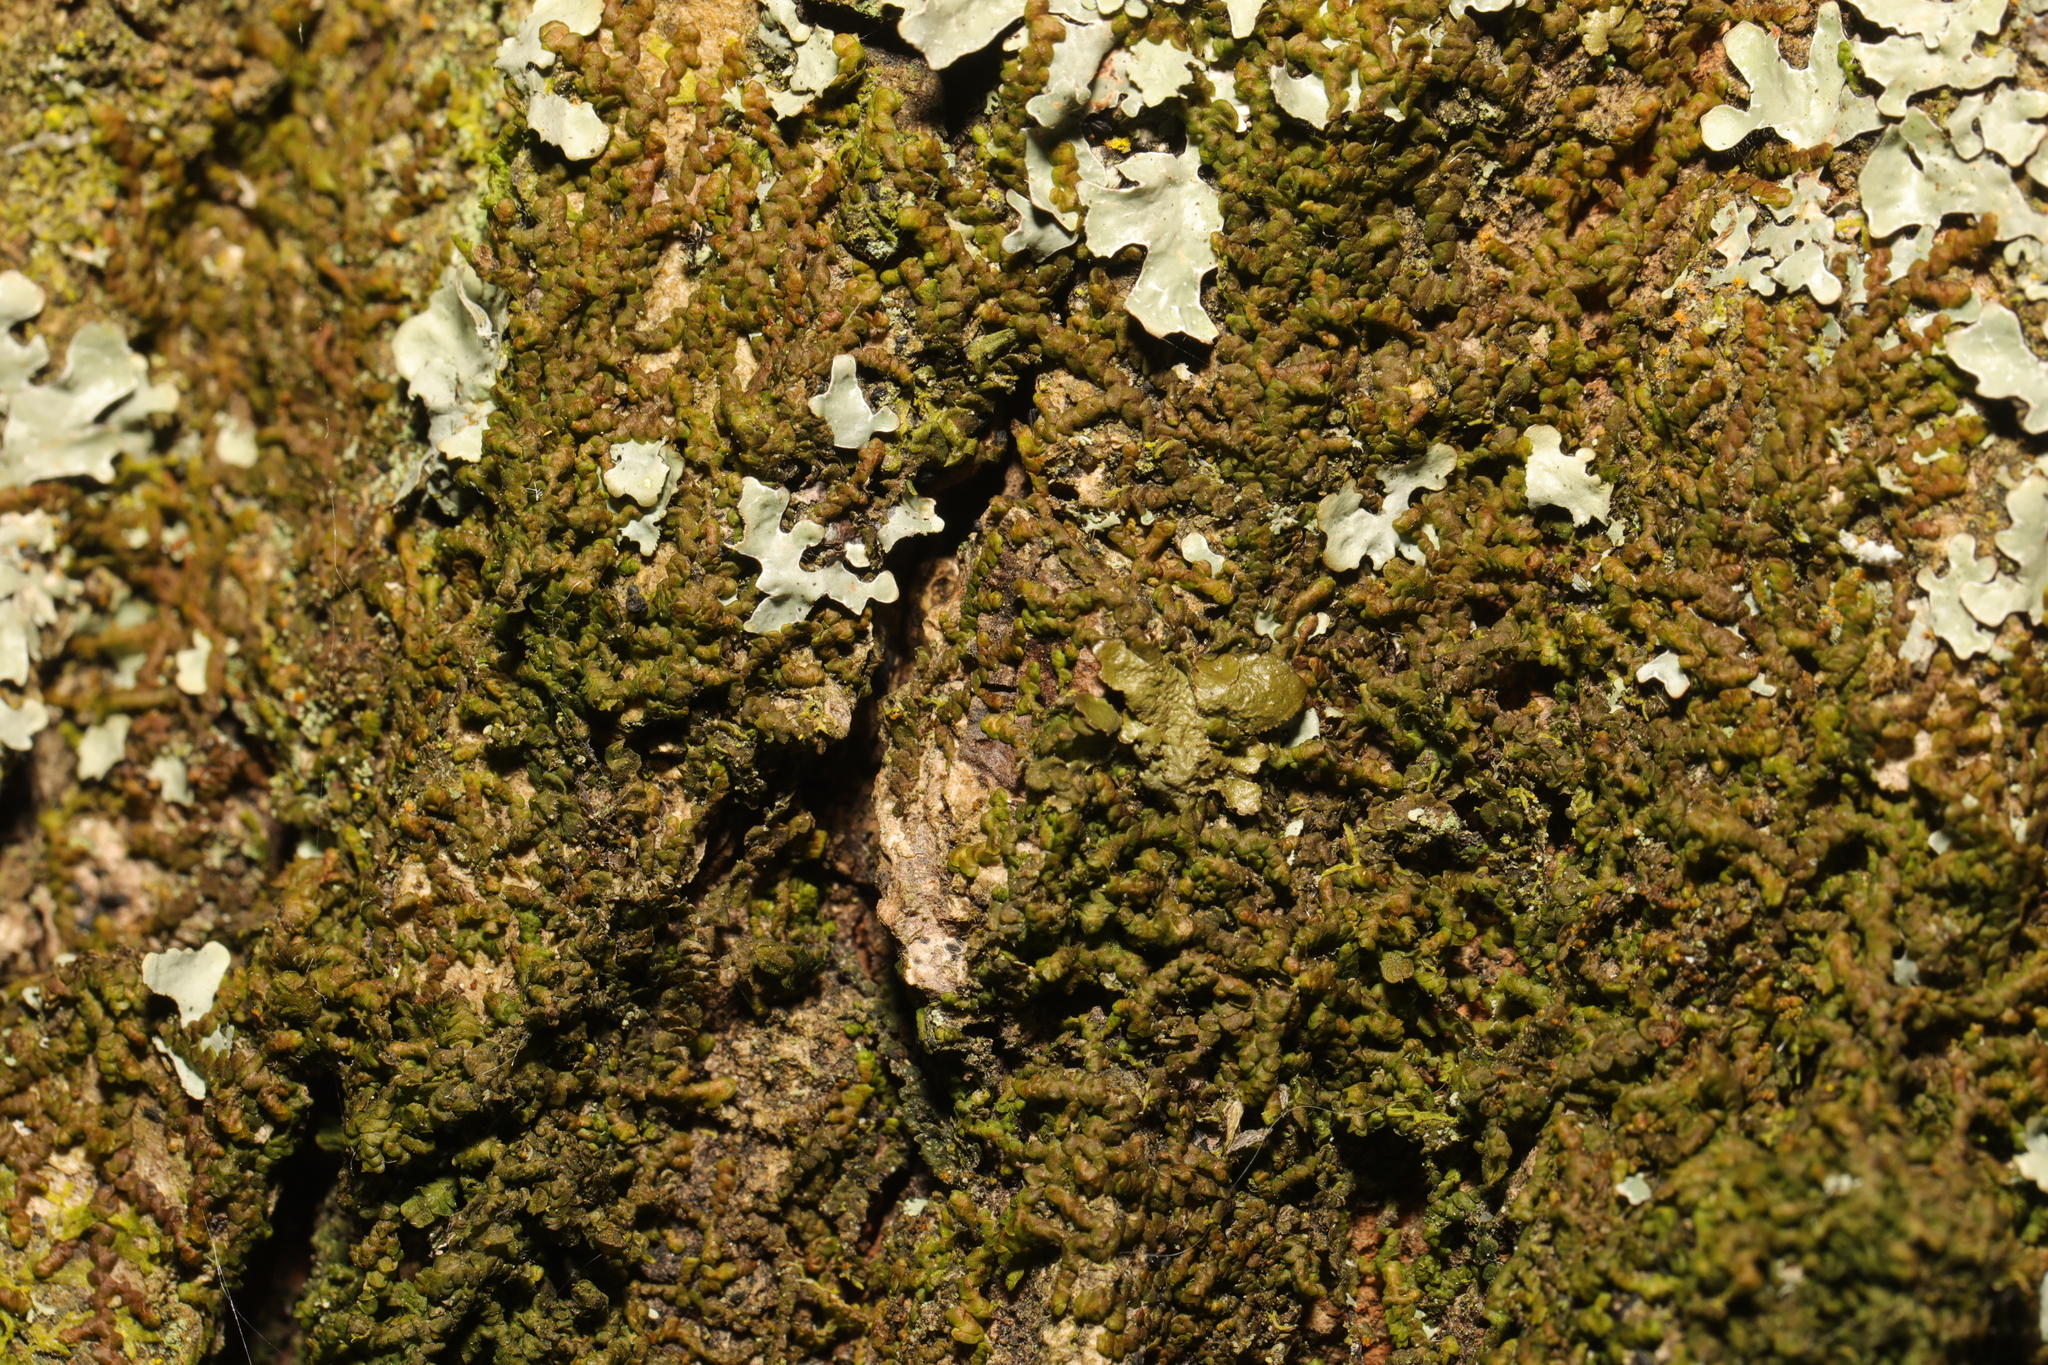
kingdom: Plantae
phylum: Marchantiophyta
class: Jungermanniopsida
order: Porellales
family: Frullaniaceae
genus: Frullania
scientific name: Frullania dilatata
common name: Dilated scalewort
